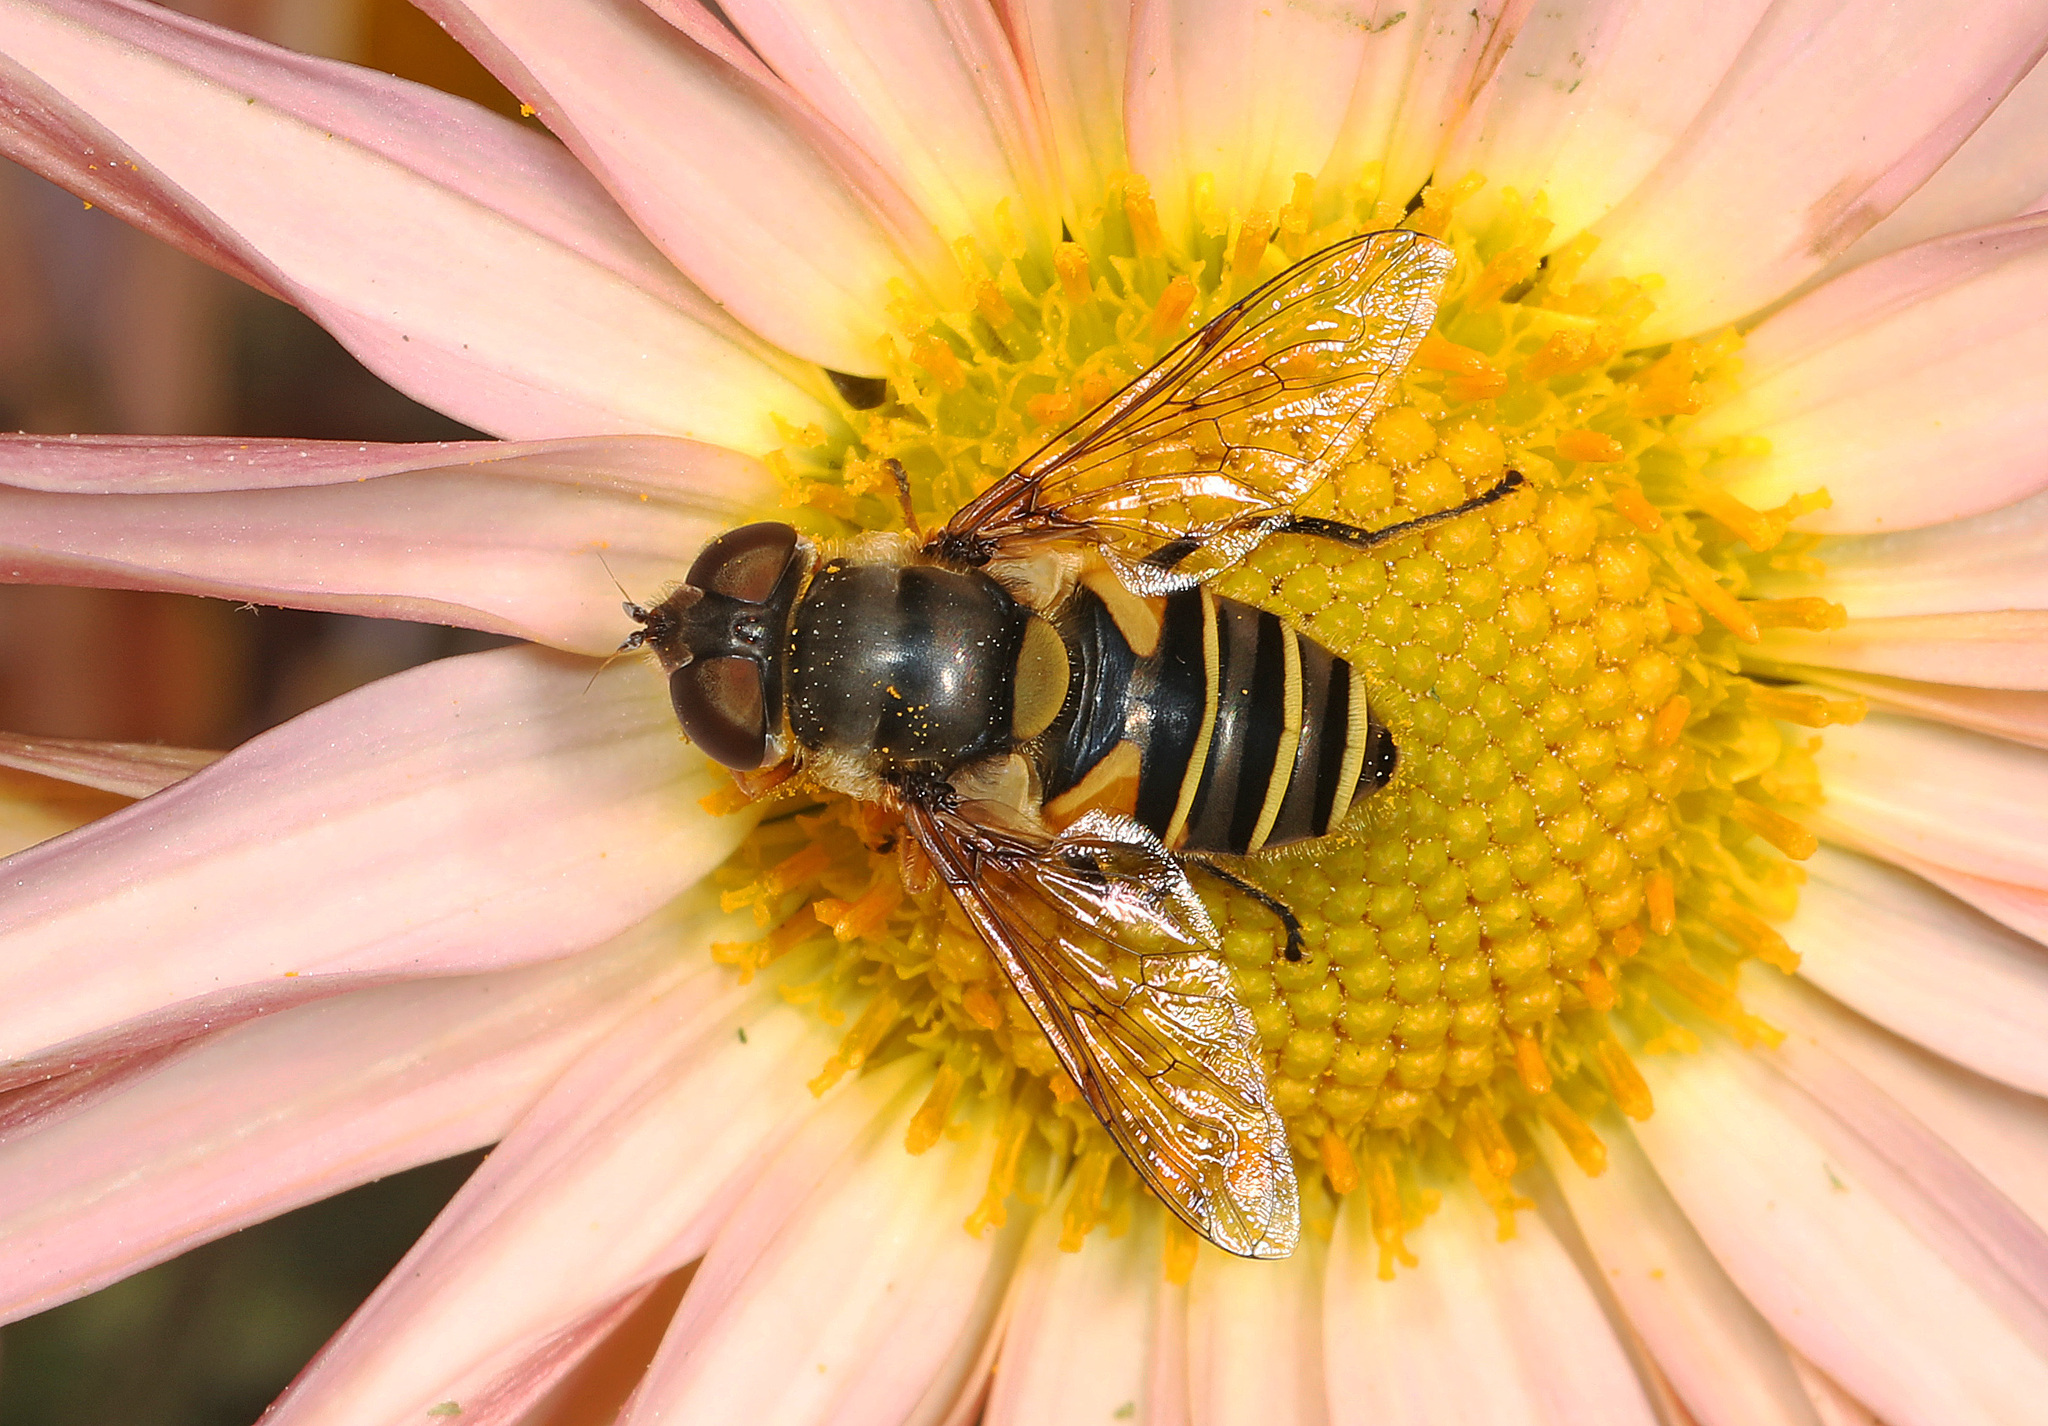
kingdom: Animalia
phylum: Arthropoda
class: Insecta
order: Diptera
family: Syrphidae
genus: Eristalis
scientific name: Eristalis transversa
